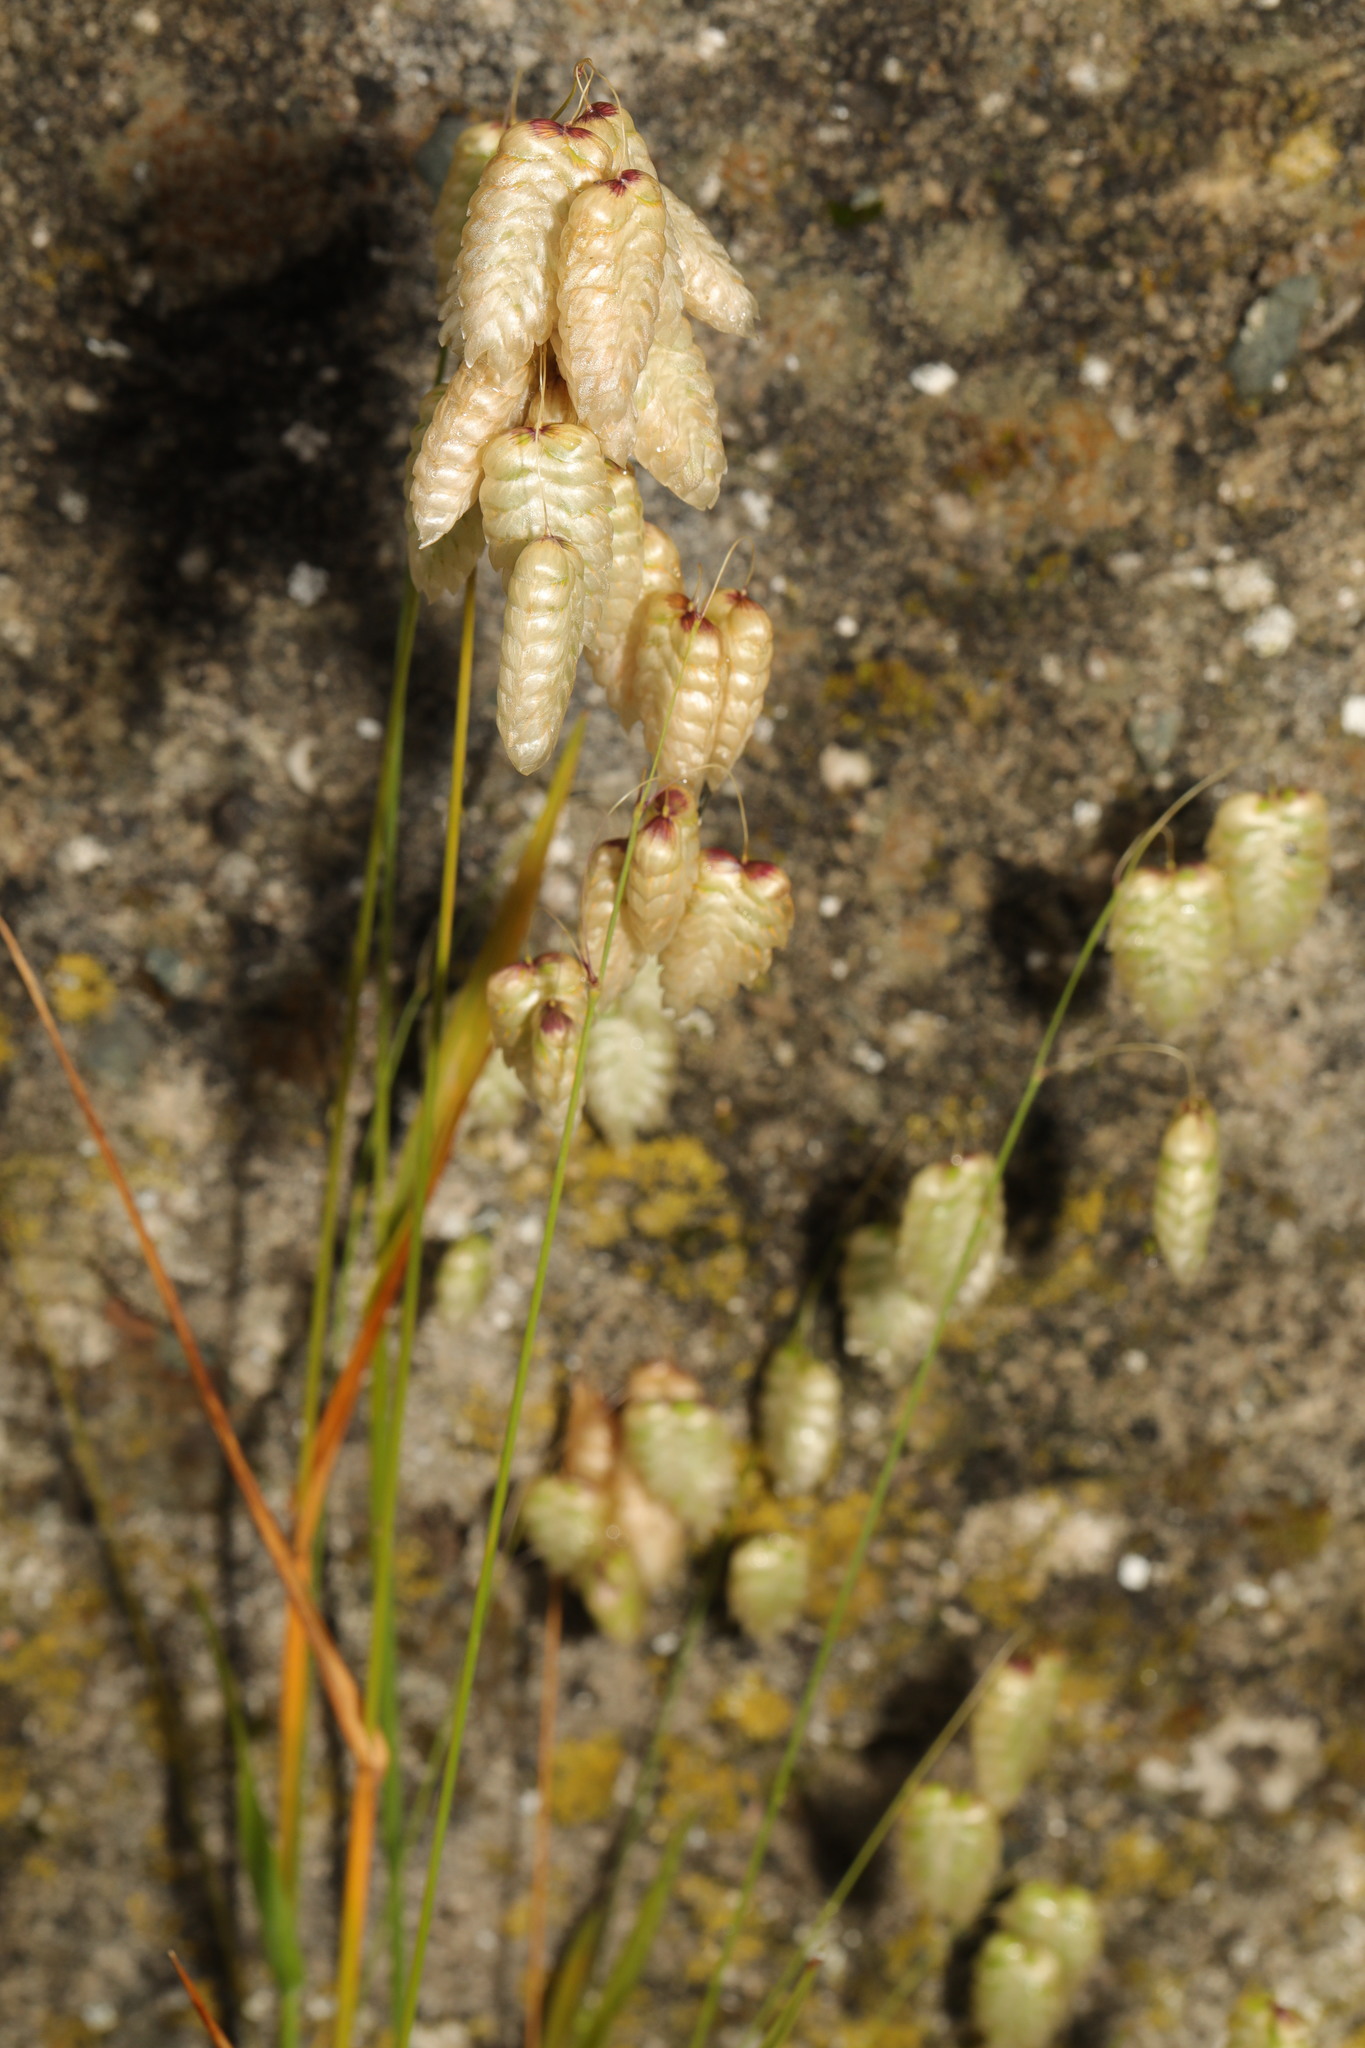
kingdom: Plantae
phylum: Tracheophyta
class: Liliopsida
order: Poales
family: Poaceae
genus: Briza
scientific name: Briza maxima
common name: Big quakinggrass
